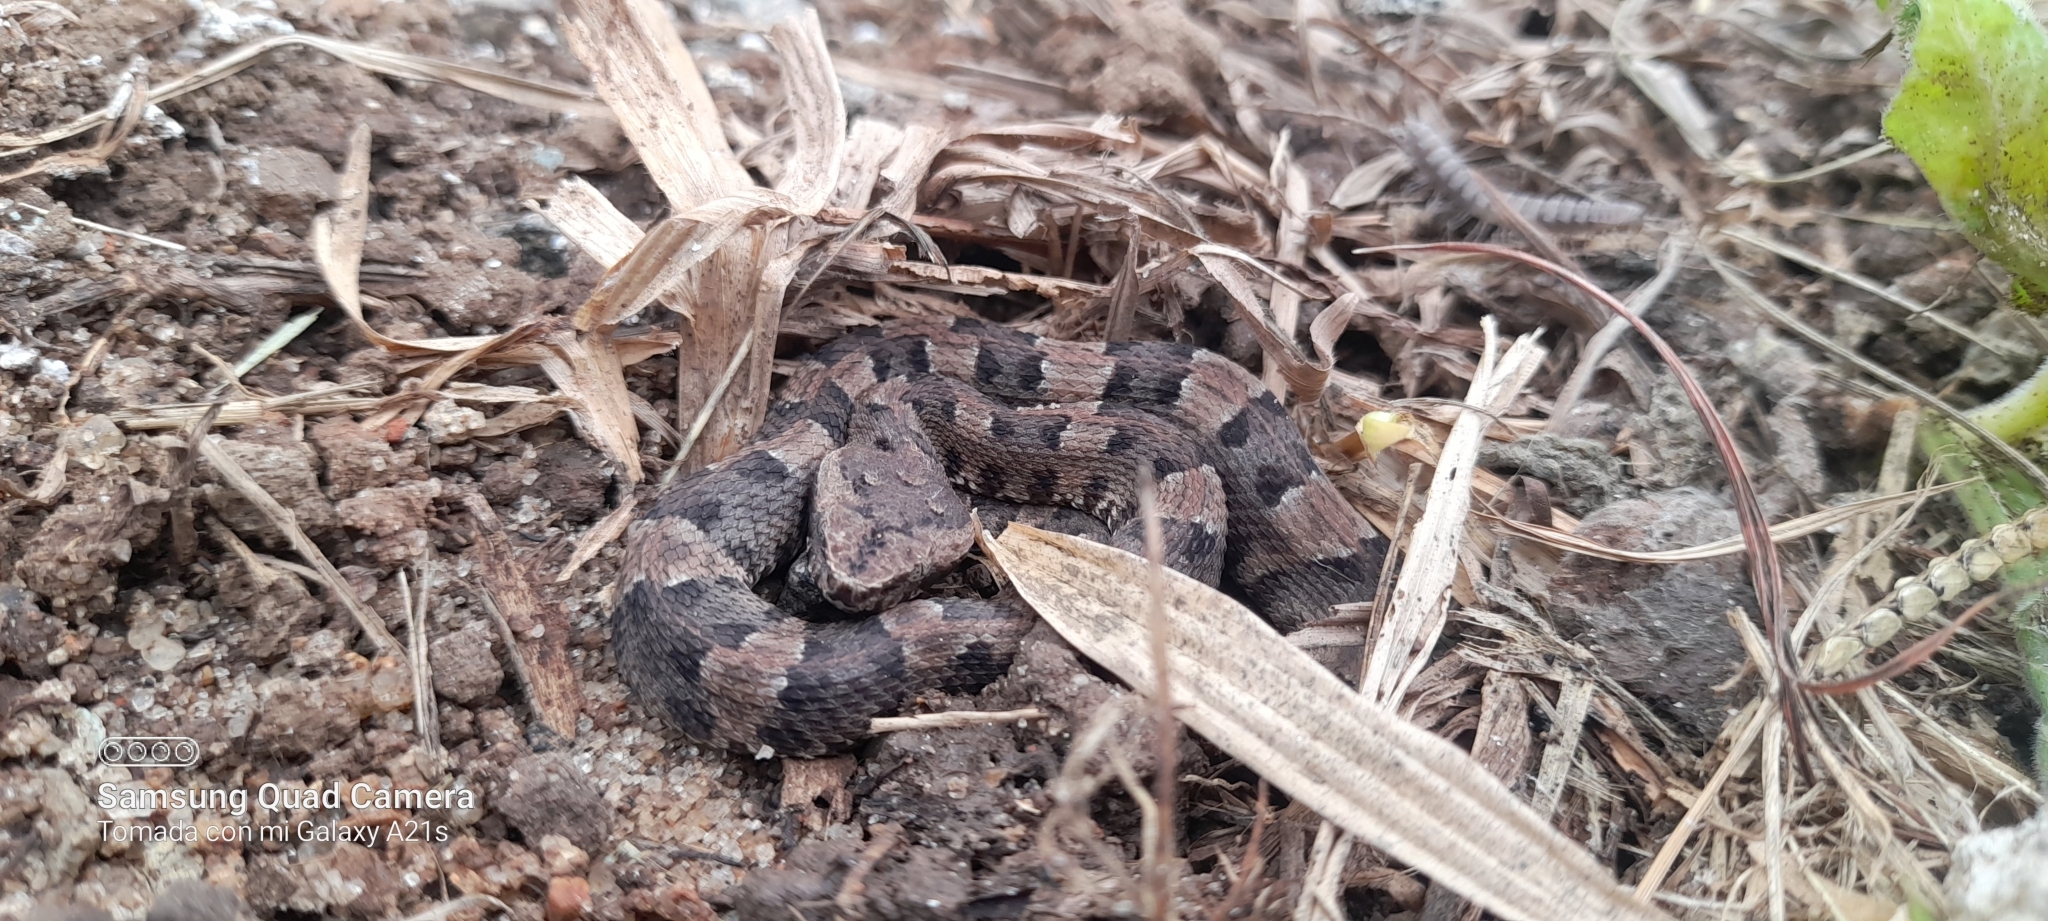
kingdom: Animalia
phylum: Chordata
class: Squamata
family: Viperidae
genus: Porthidium
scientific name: Porthidium lansbergii
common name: Lansberg's hognosed pit viper
